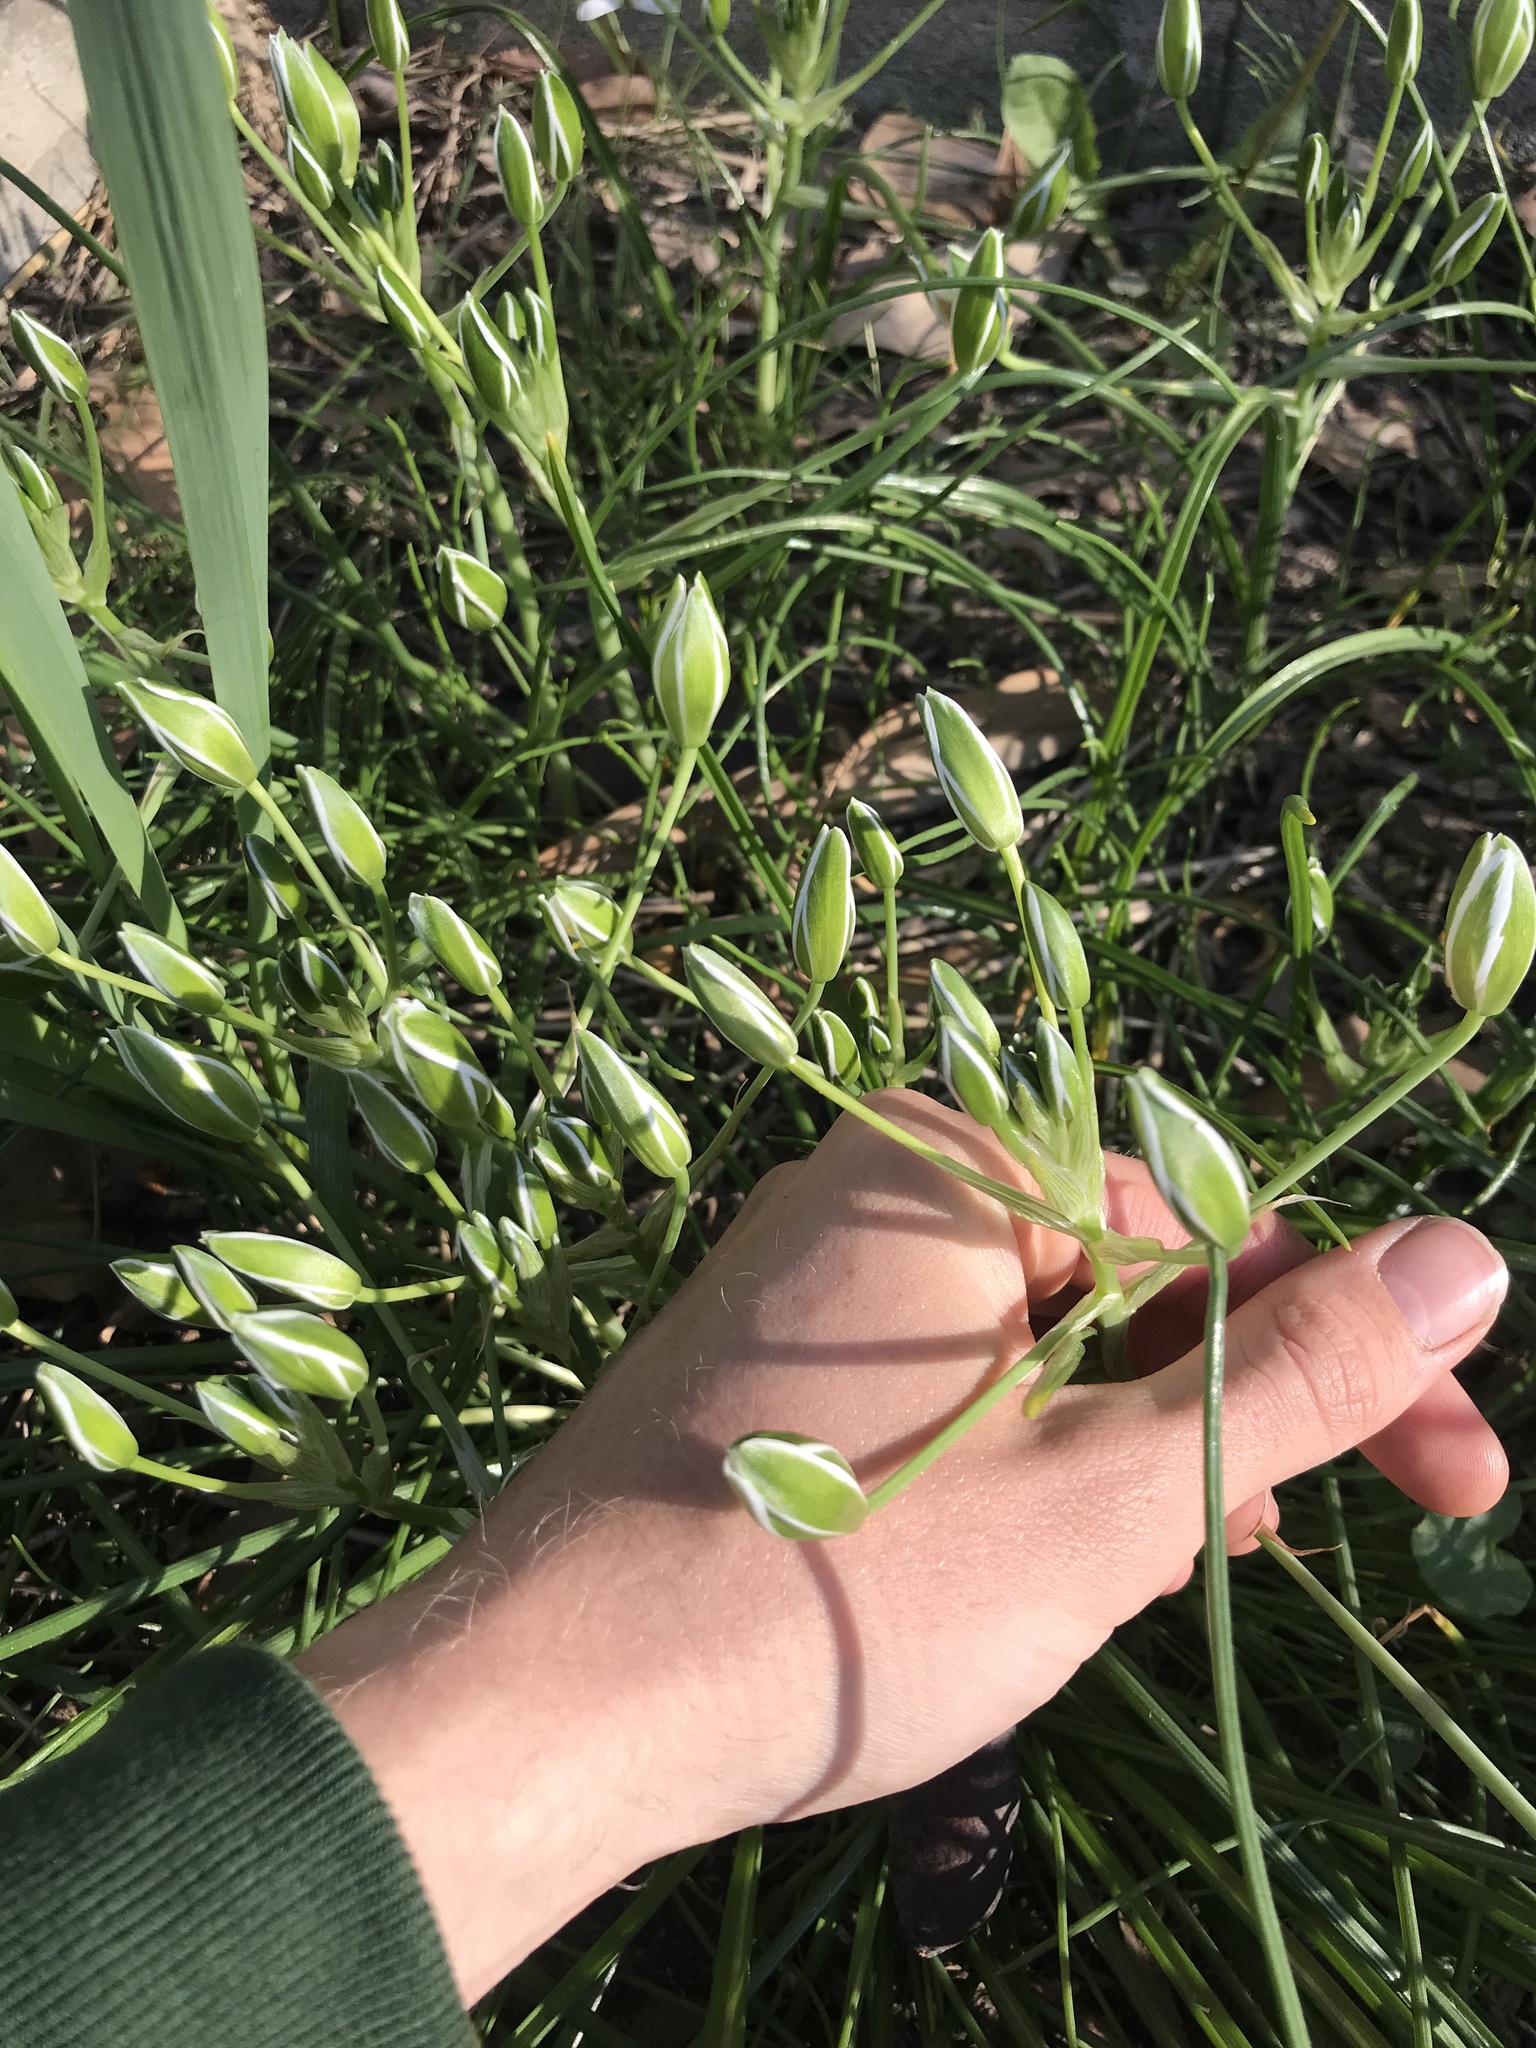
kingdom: Plantae
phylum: Tracheophyta
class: Liliopsida
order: Asparagales
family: Asparagaceae
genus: Ornithogalum
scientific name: Ornithogalum umbellatum
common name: Garden star-of-bethlehem
